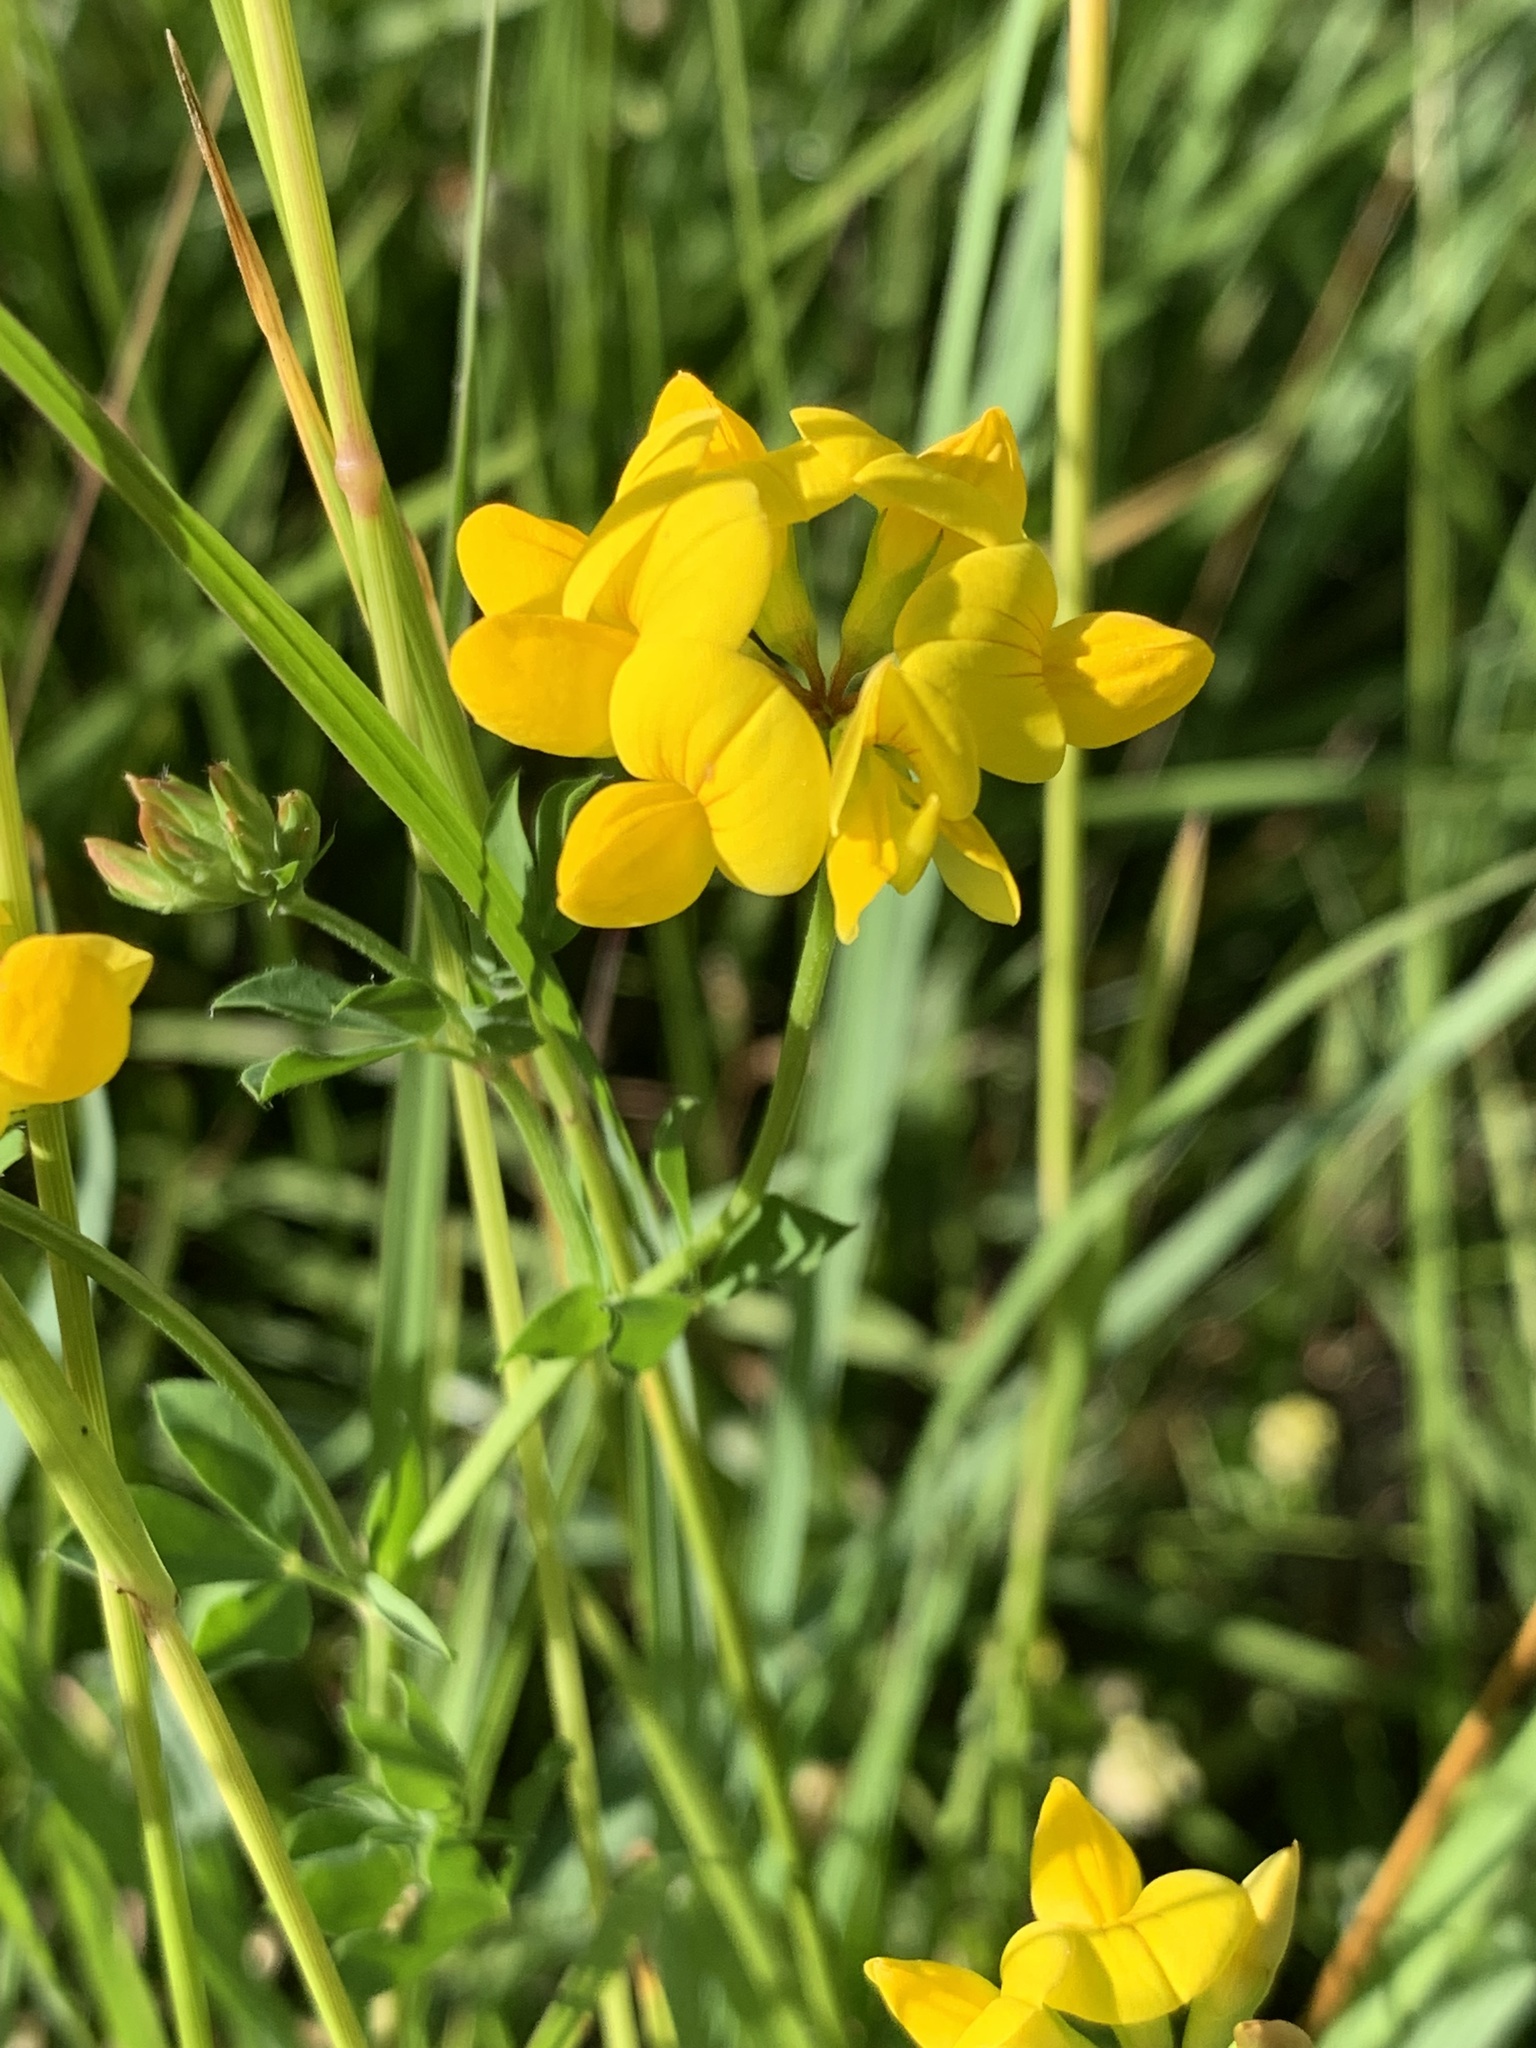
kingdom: Plantae
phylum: Tracheophyta
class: Magnoliopsida
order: Fabales
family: Fabaceae
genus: Lotus
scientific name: Lotus corniculatus
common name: Common bird's-foot-trefoil
